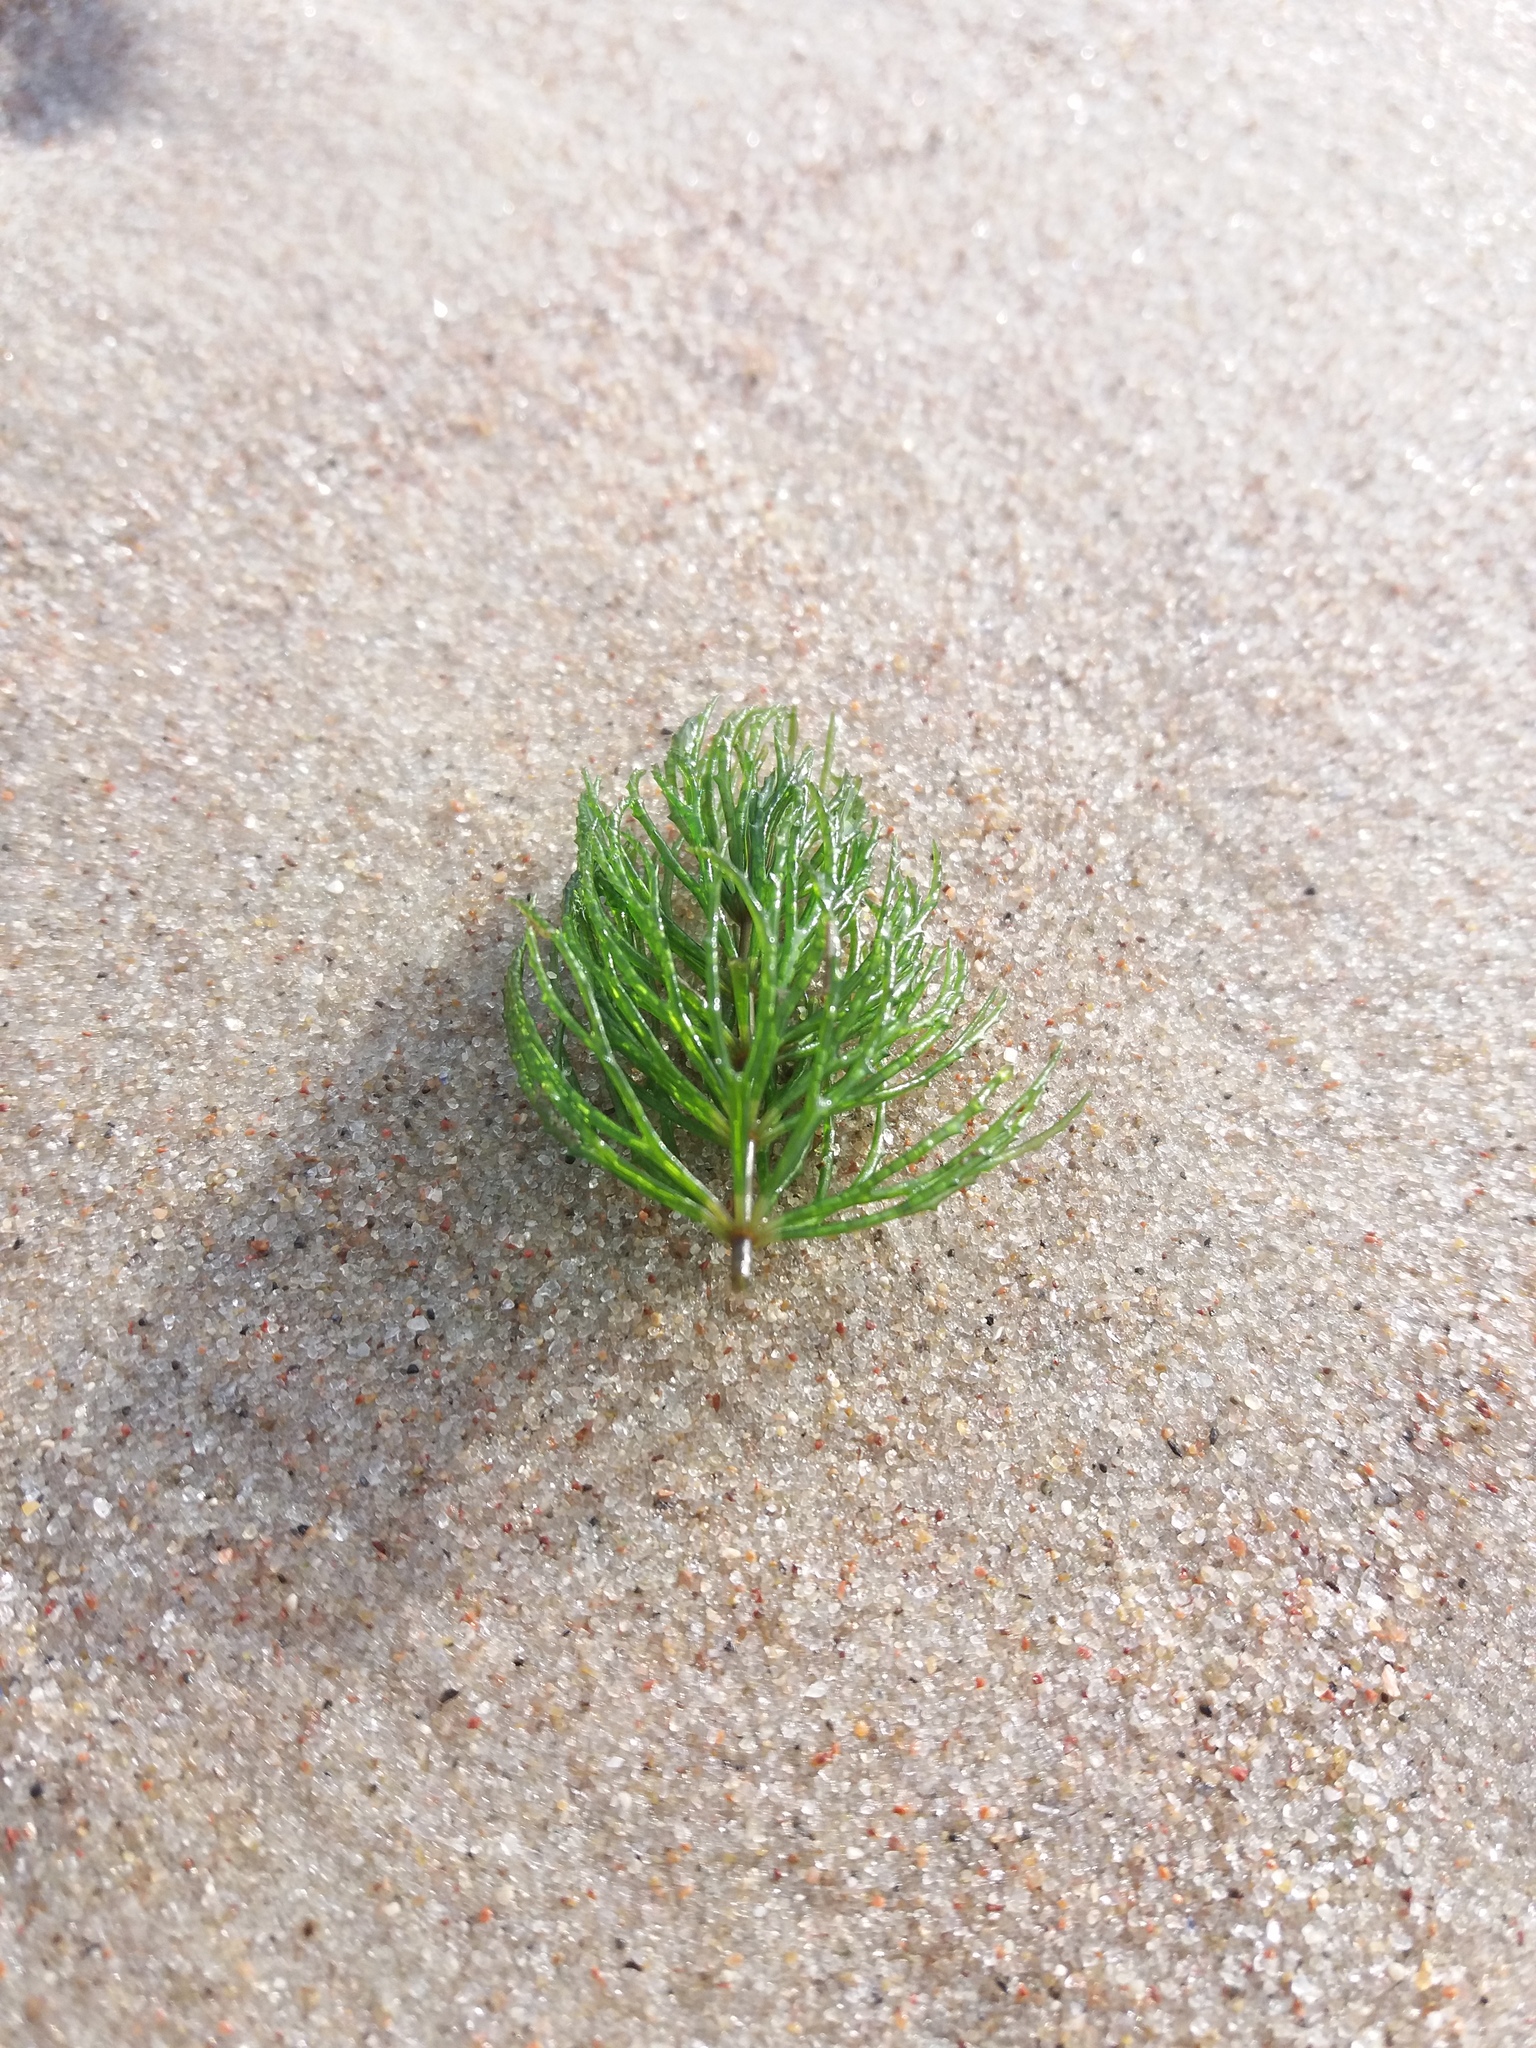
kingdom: Plantae
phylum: Tracheophyta
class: Magnoliopsida
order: Ceratophyllales
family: Ceratophyllaceae
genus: Ceratophyllum
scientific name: Ceratophyllum demersum
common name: Rigid hornwort
